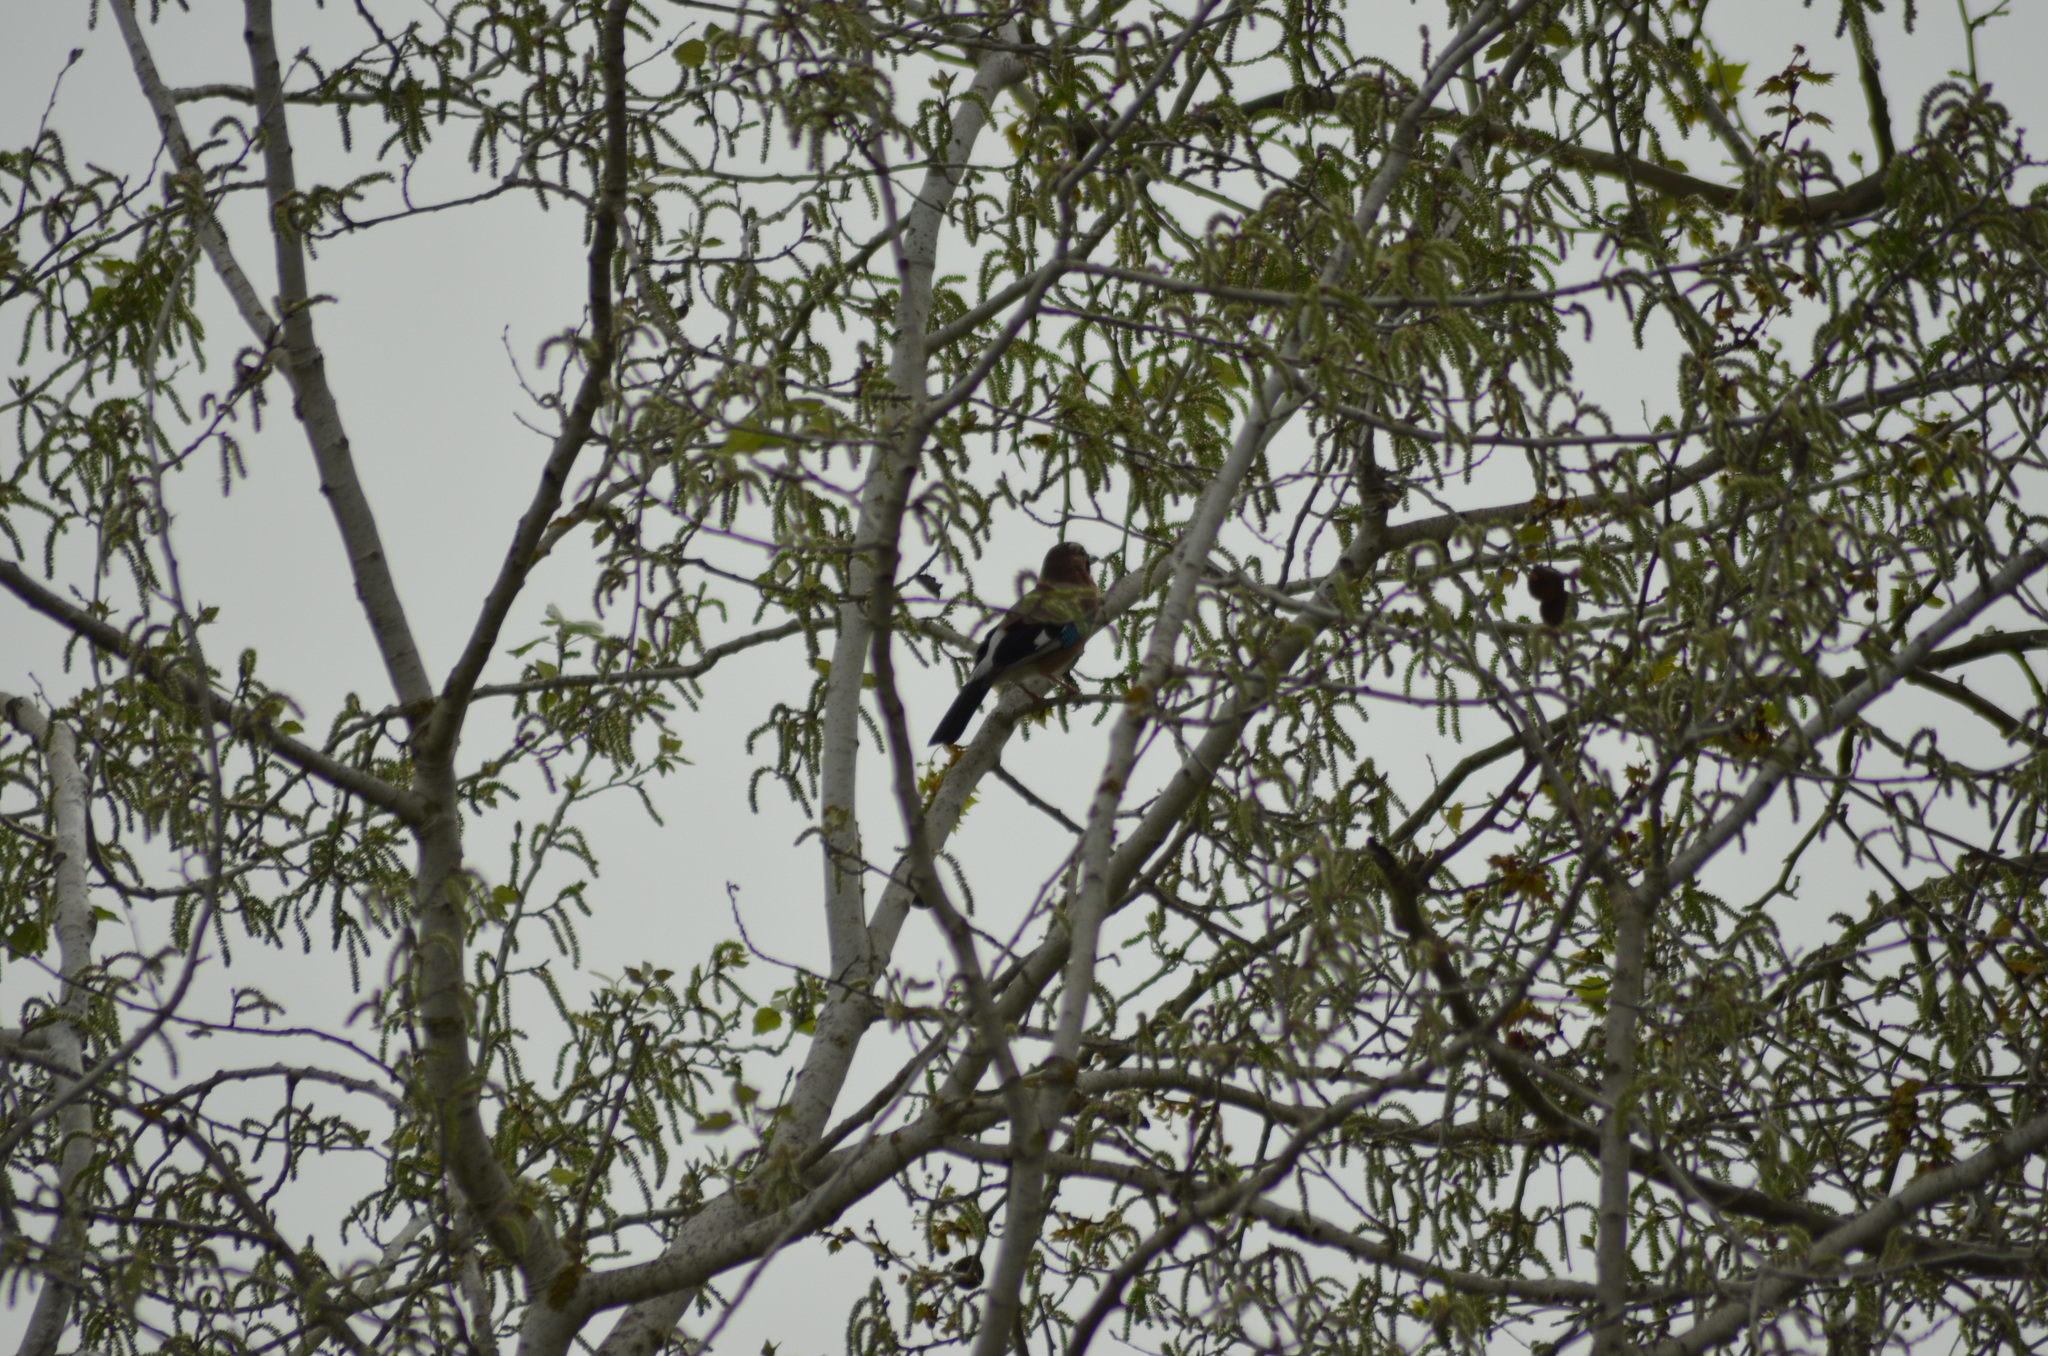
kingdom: Animalia
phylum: Chordata
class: Aves
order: Passeriformes
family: Corvidae
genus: Garrulus
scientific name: Garrulus glandarius
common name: Eurasian jay
